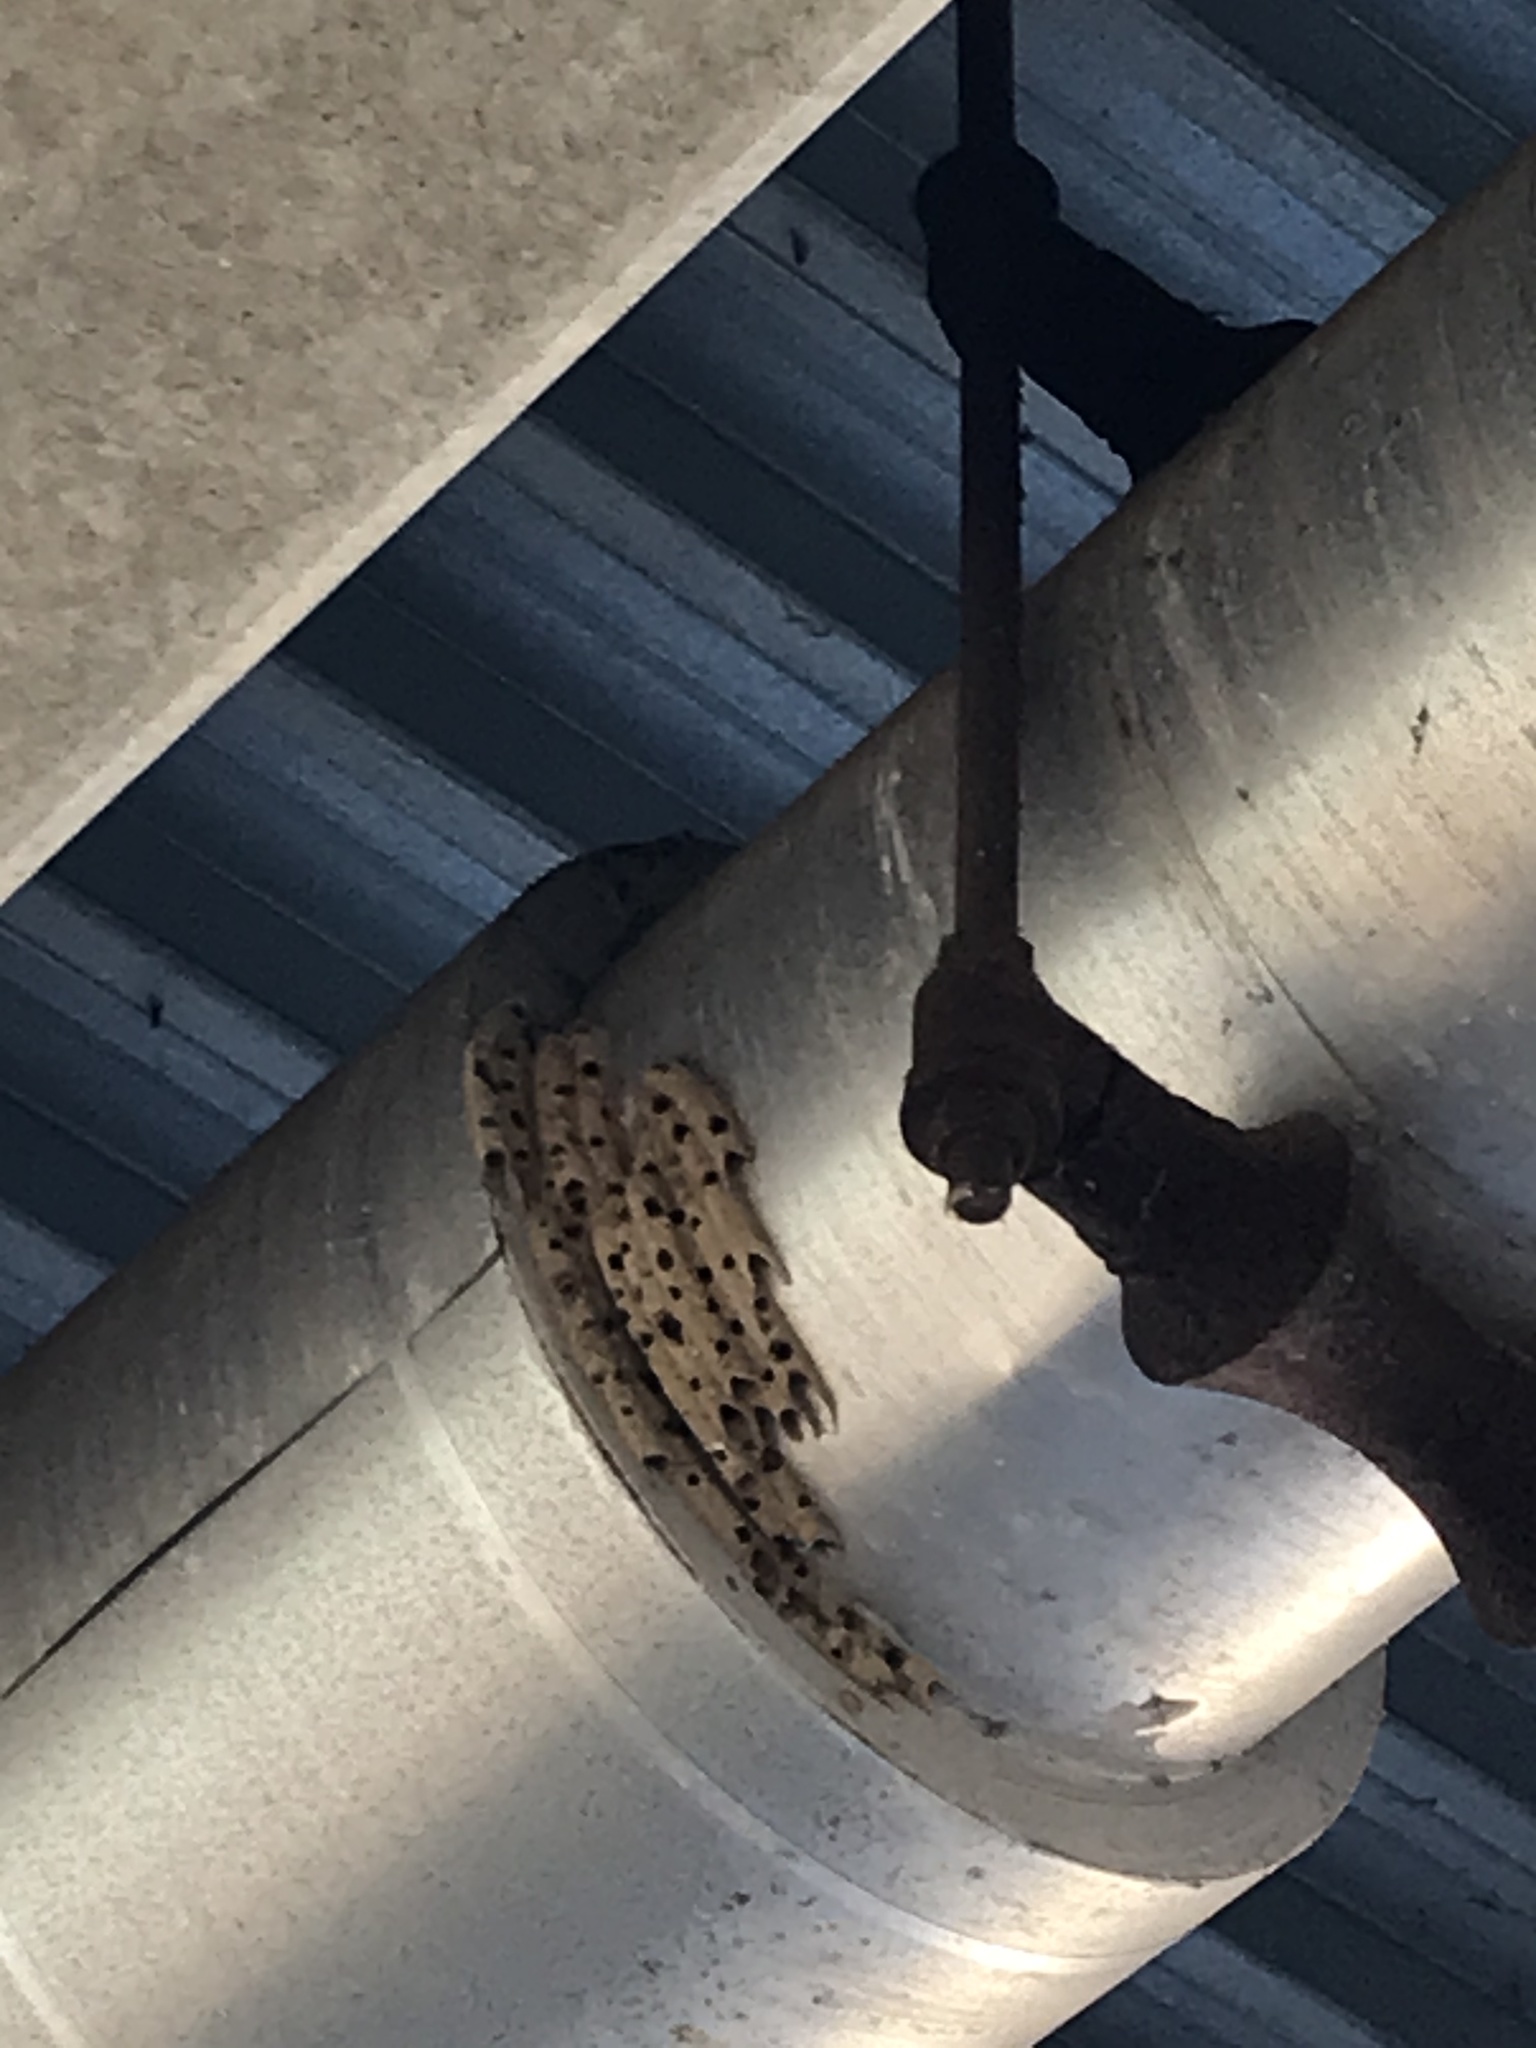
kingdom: Animalia
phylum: Arthropoda
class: Insecta
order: Hymenoptera
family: Crabronidae
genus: Trypoxylon
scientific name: Trypoxylon politum
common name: Organ-pipe mud-dauber wasp
